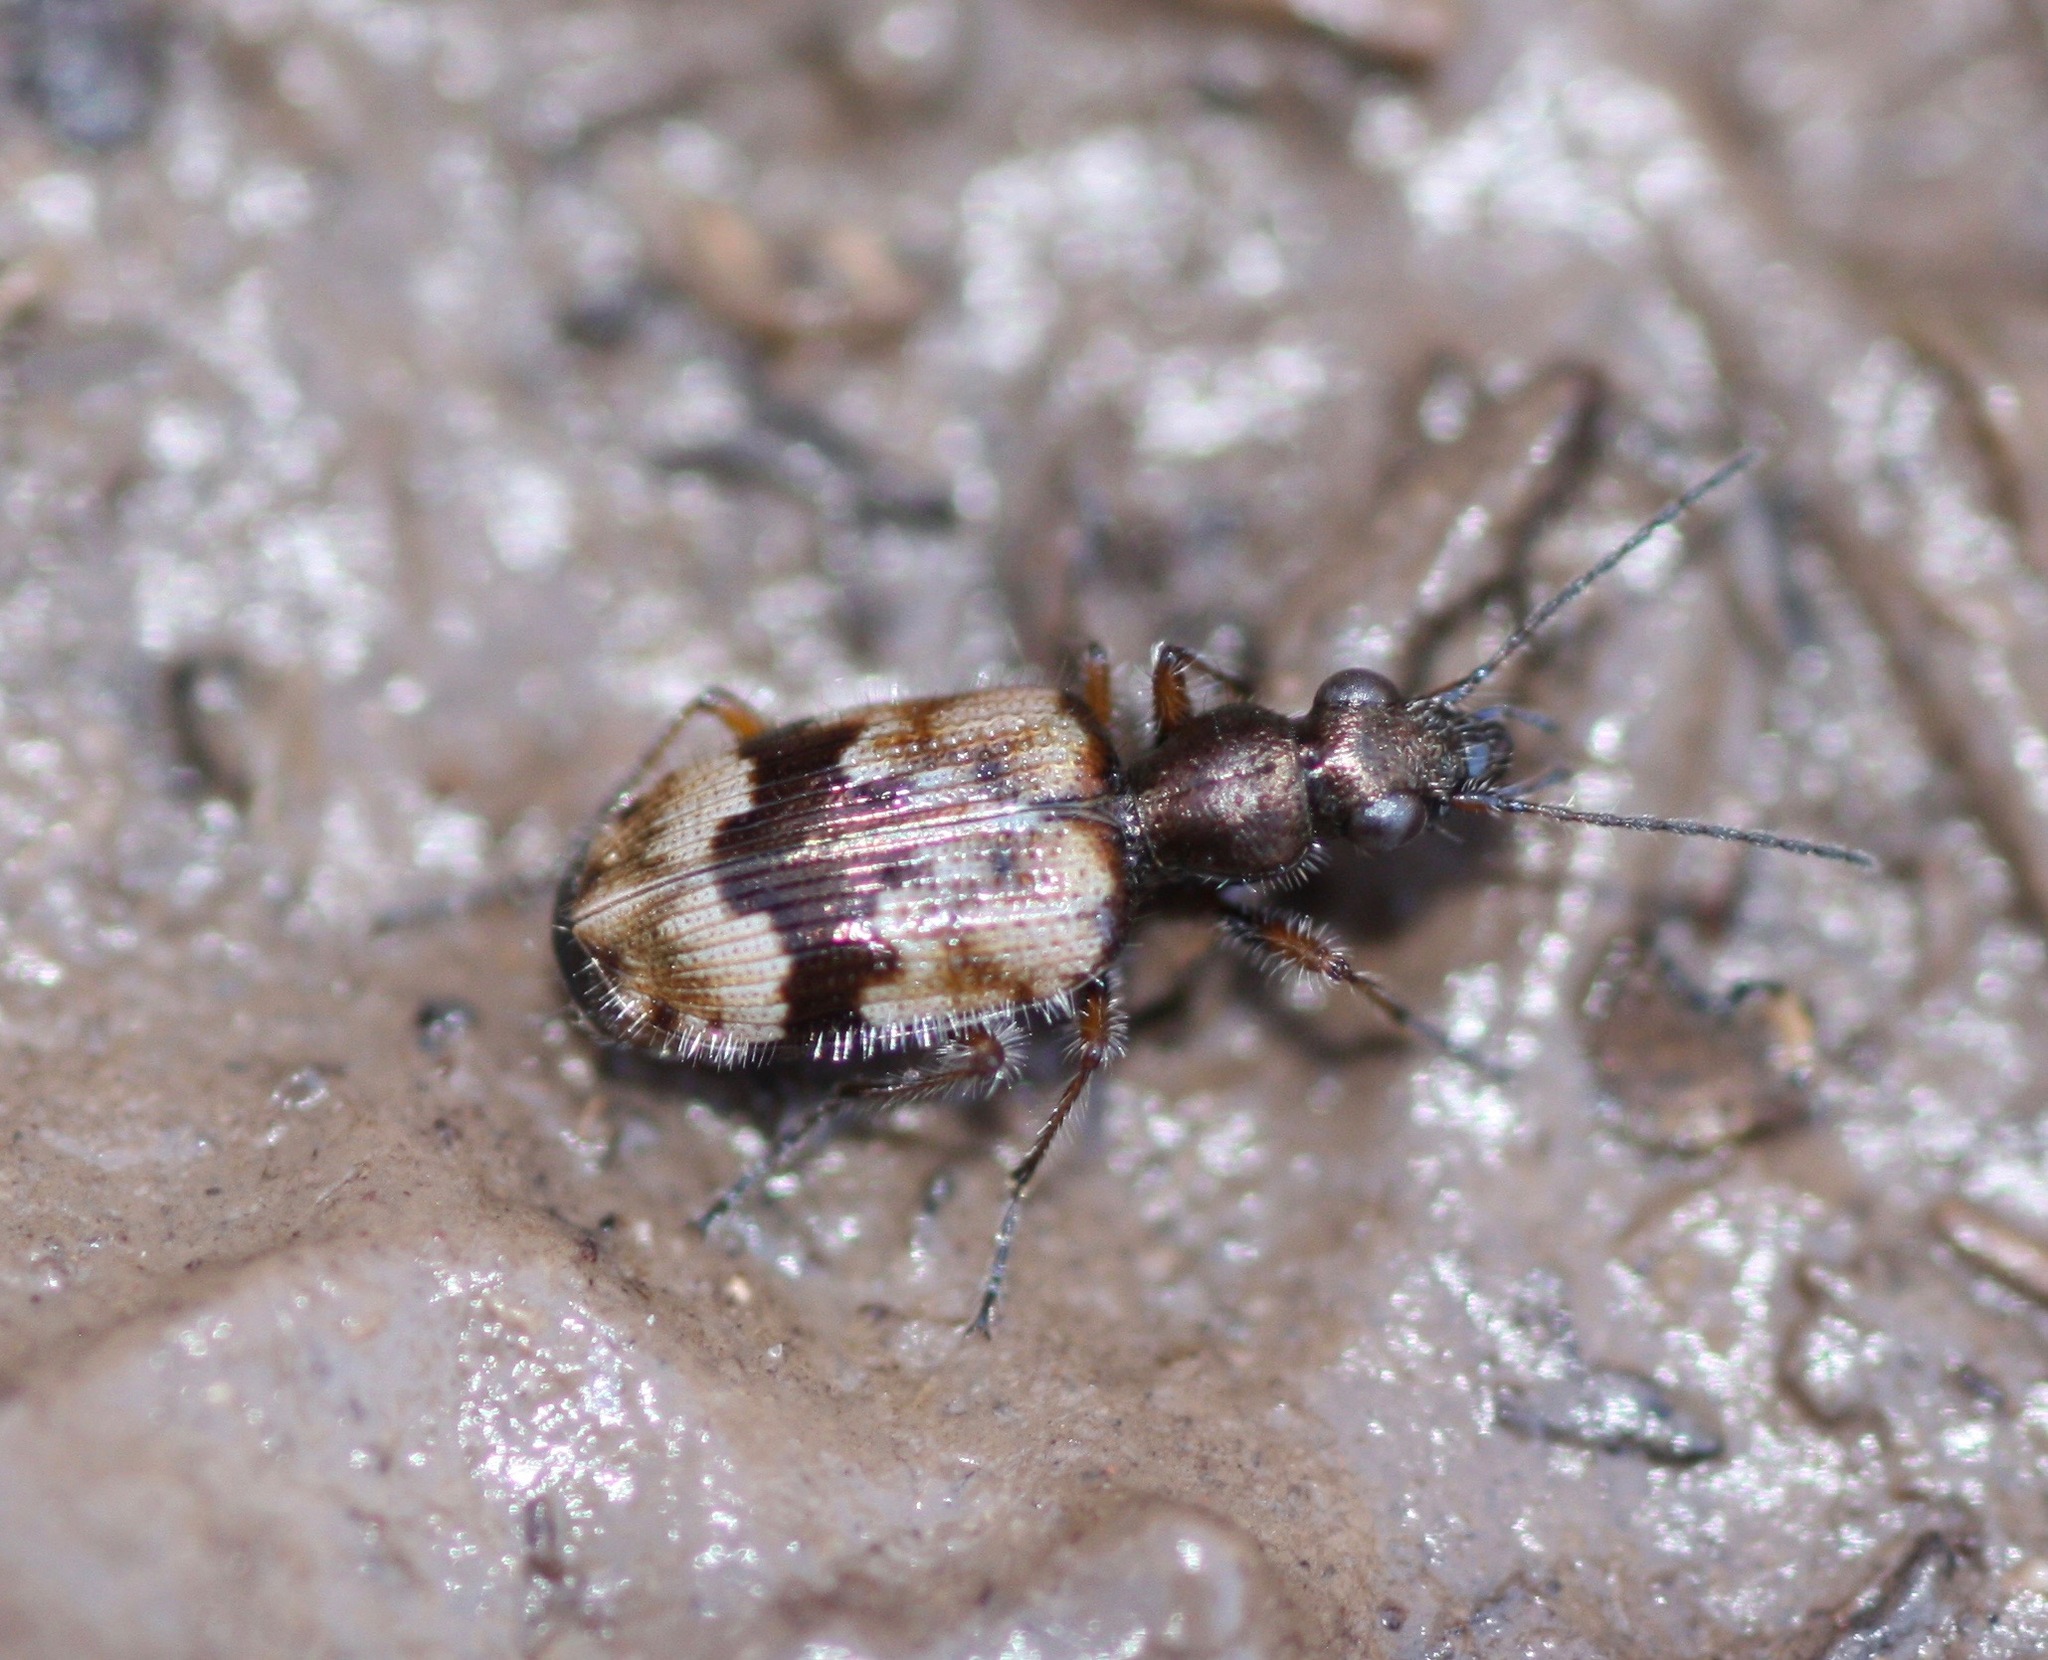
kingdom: Animalia
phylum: Arthropoda
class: Insecta
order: Coleoptera
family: Carabidae
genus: Lachnophorus
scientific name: Lachnophorus elegantulus
